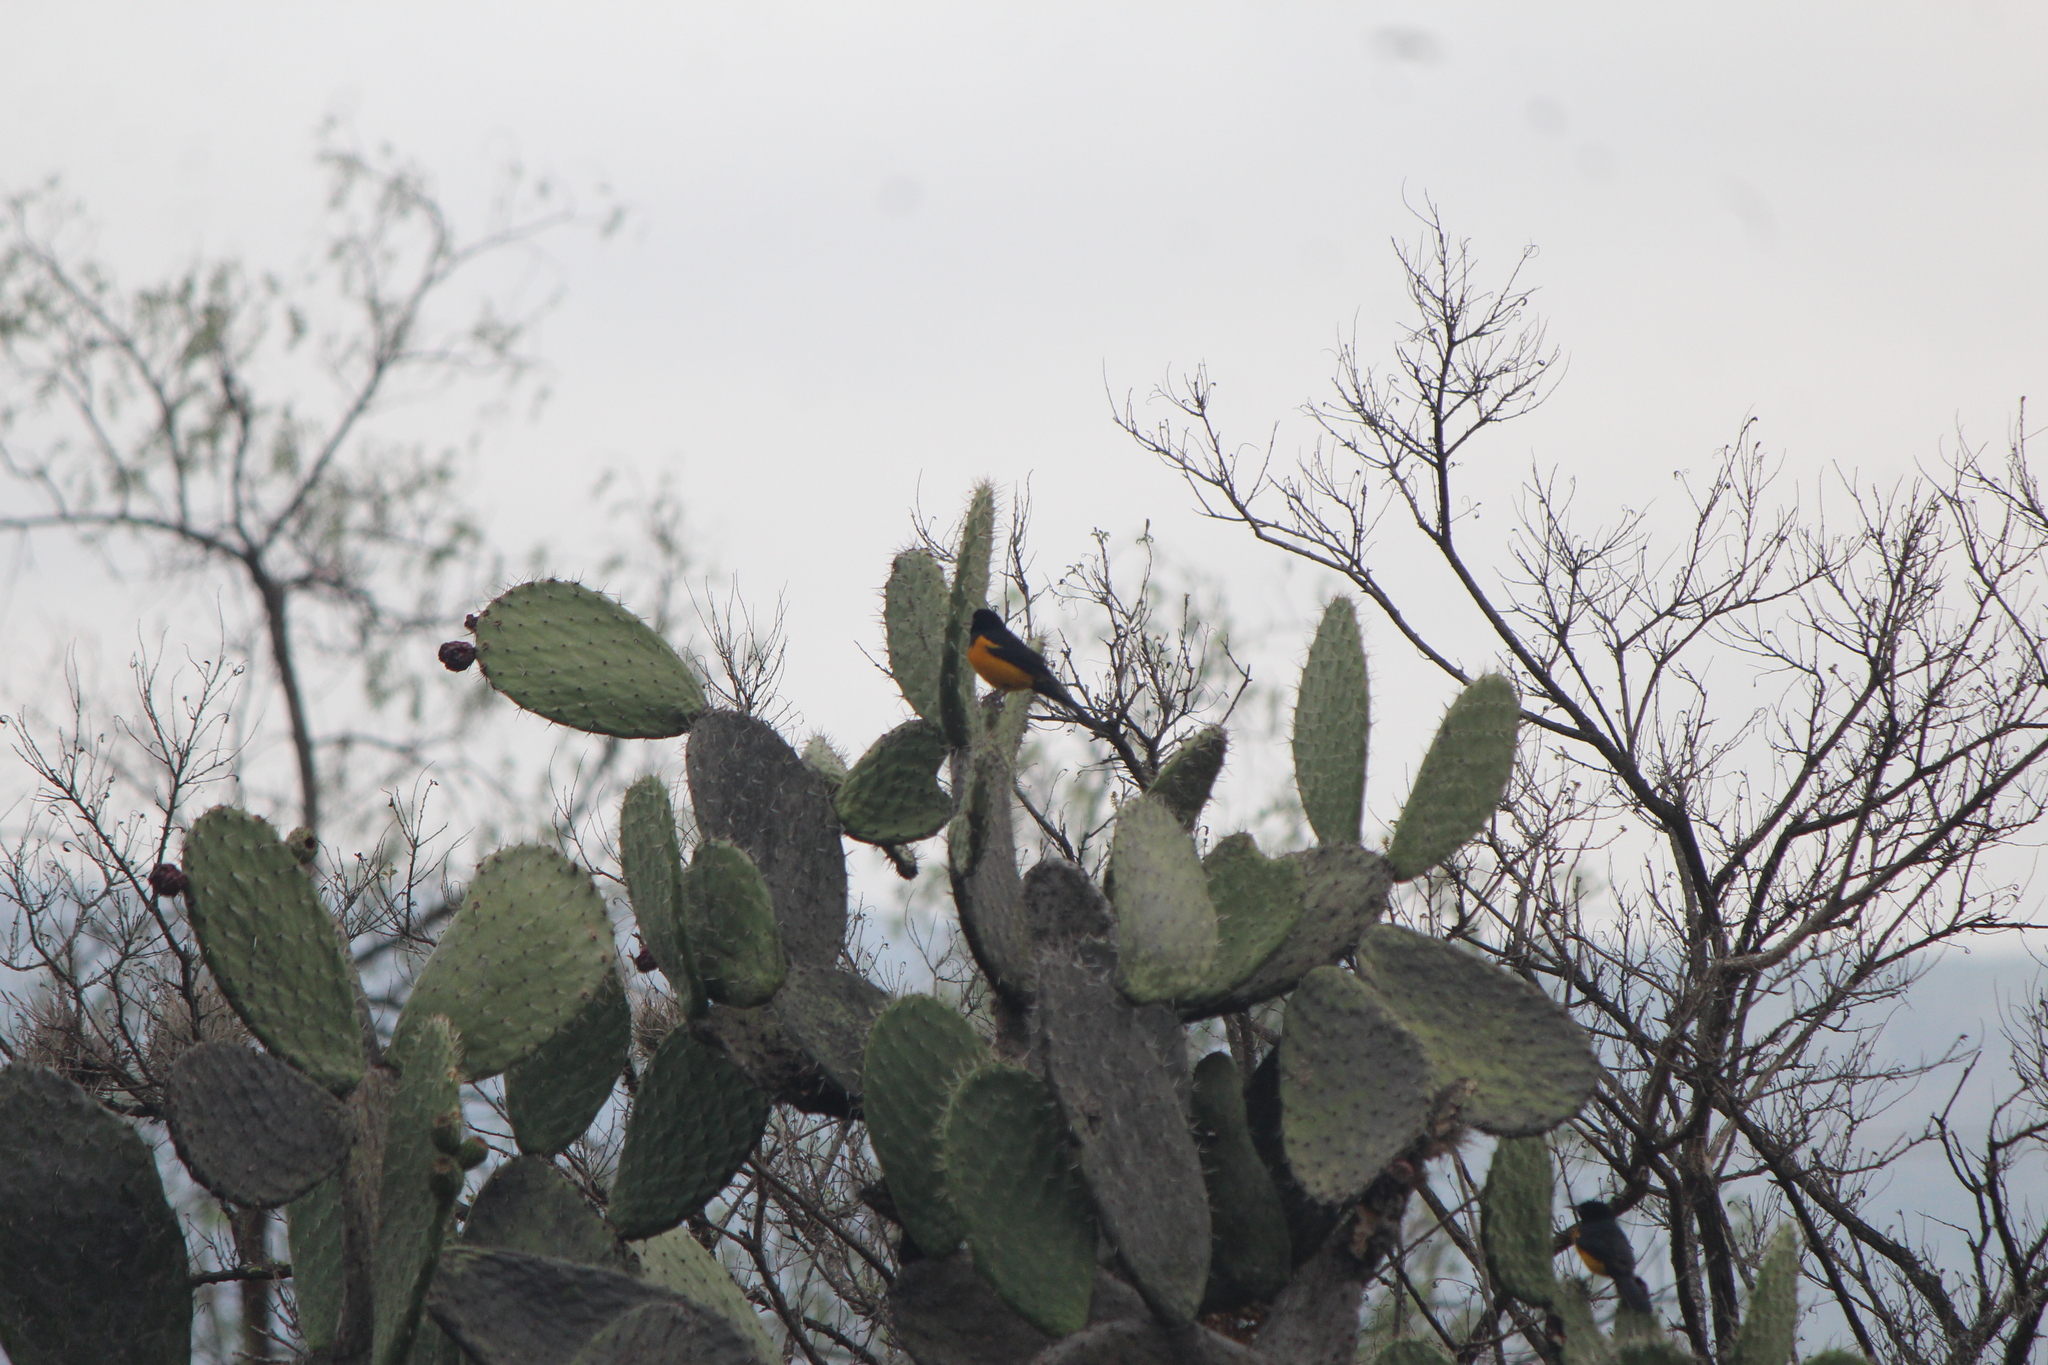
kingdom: Animalia
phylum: Chordata
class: Aves
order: Passeriformes
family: Icteridae
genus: Icterus
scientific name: Icterus wagleri
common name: Black-vented oriole
